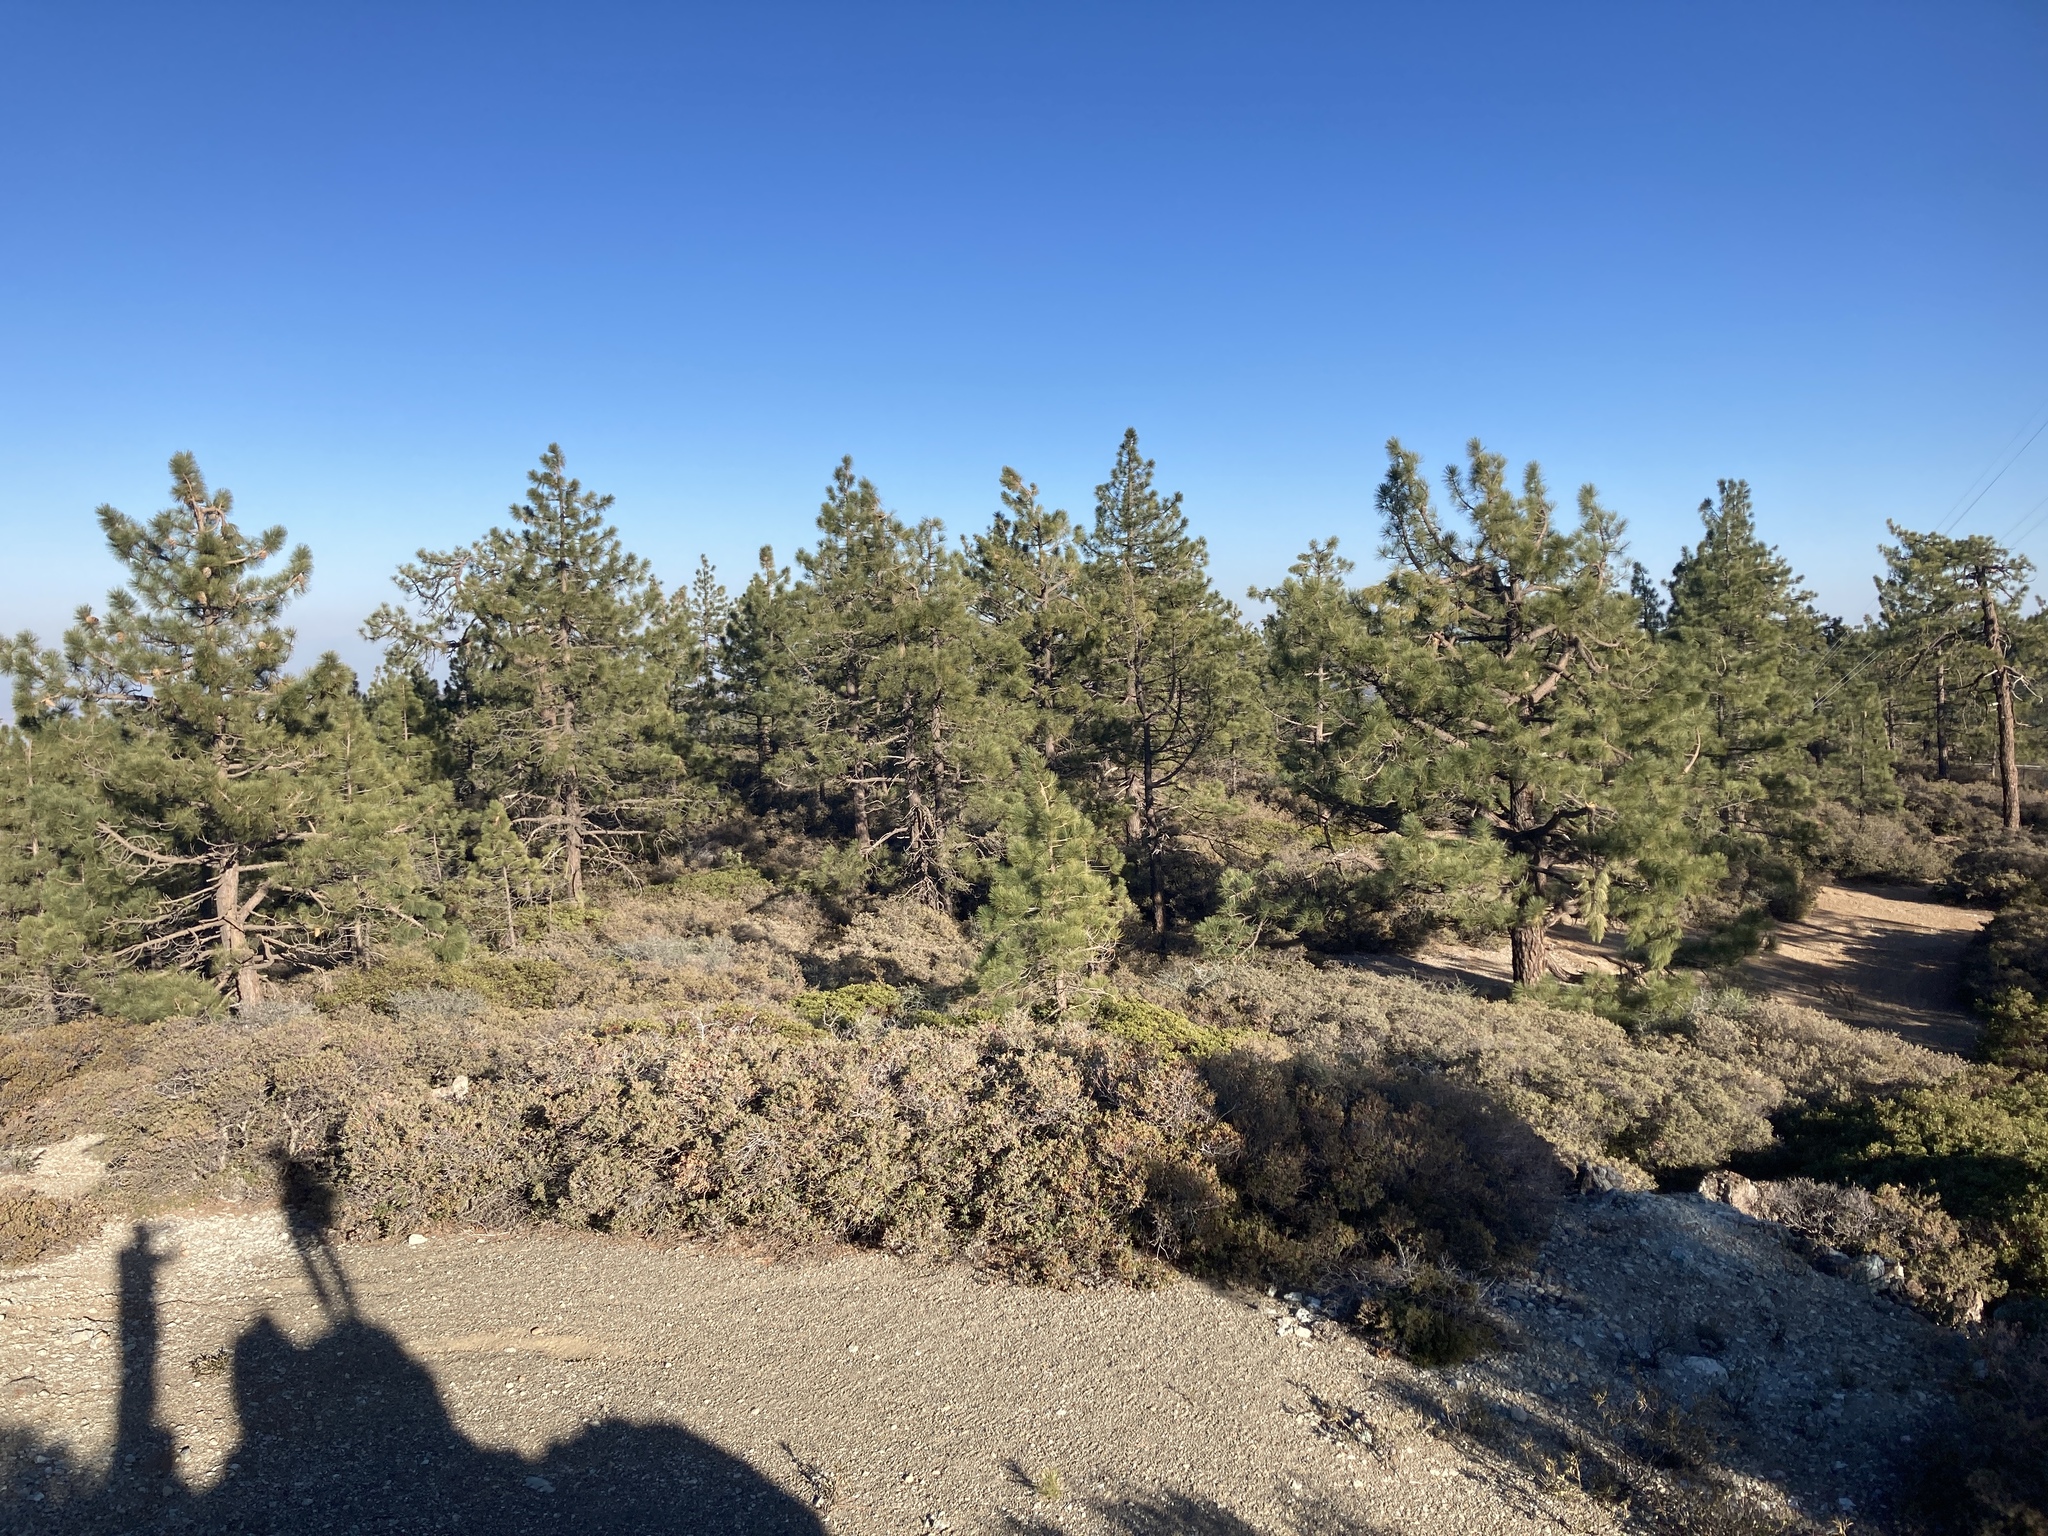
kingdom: Plantae
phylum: Tracheophyta
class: Pinopsida
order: Pinales
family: Pinaceae
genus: Pinus
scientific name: Pinus coulteri
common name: Coulter pine
